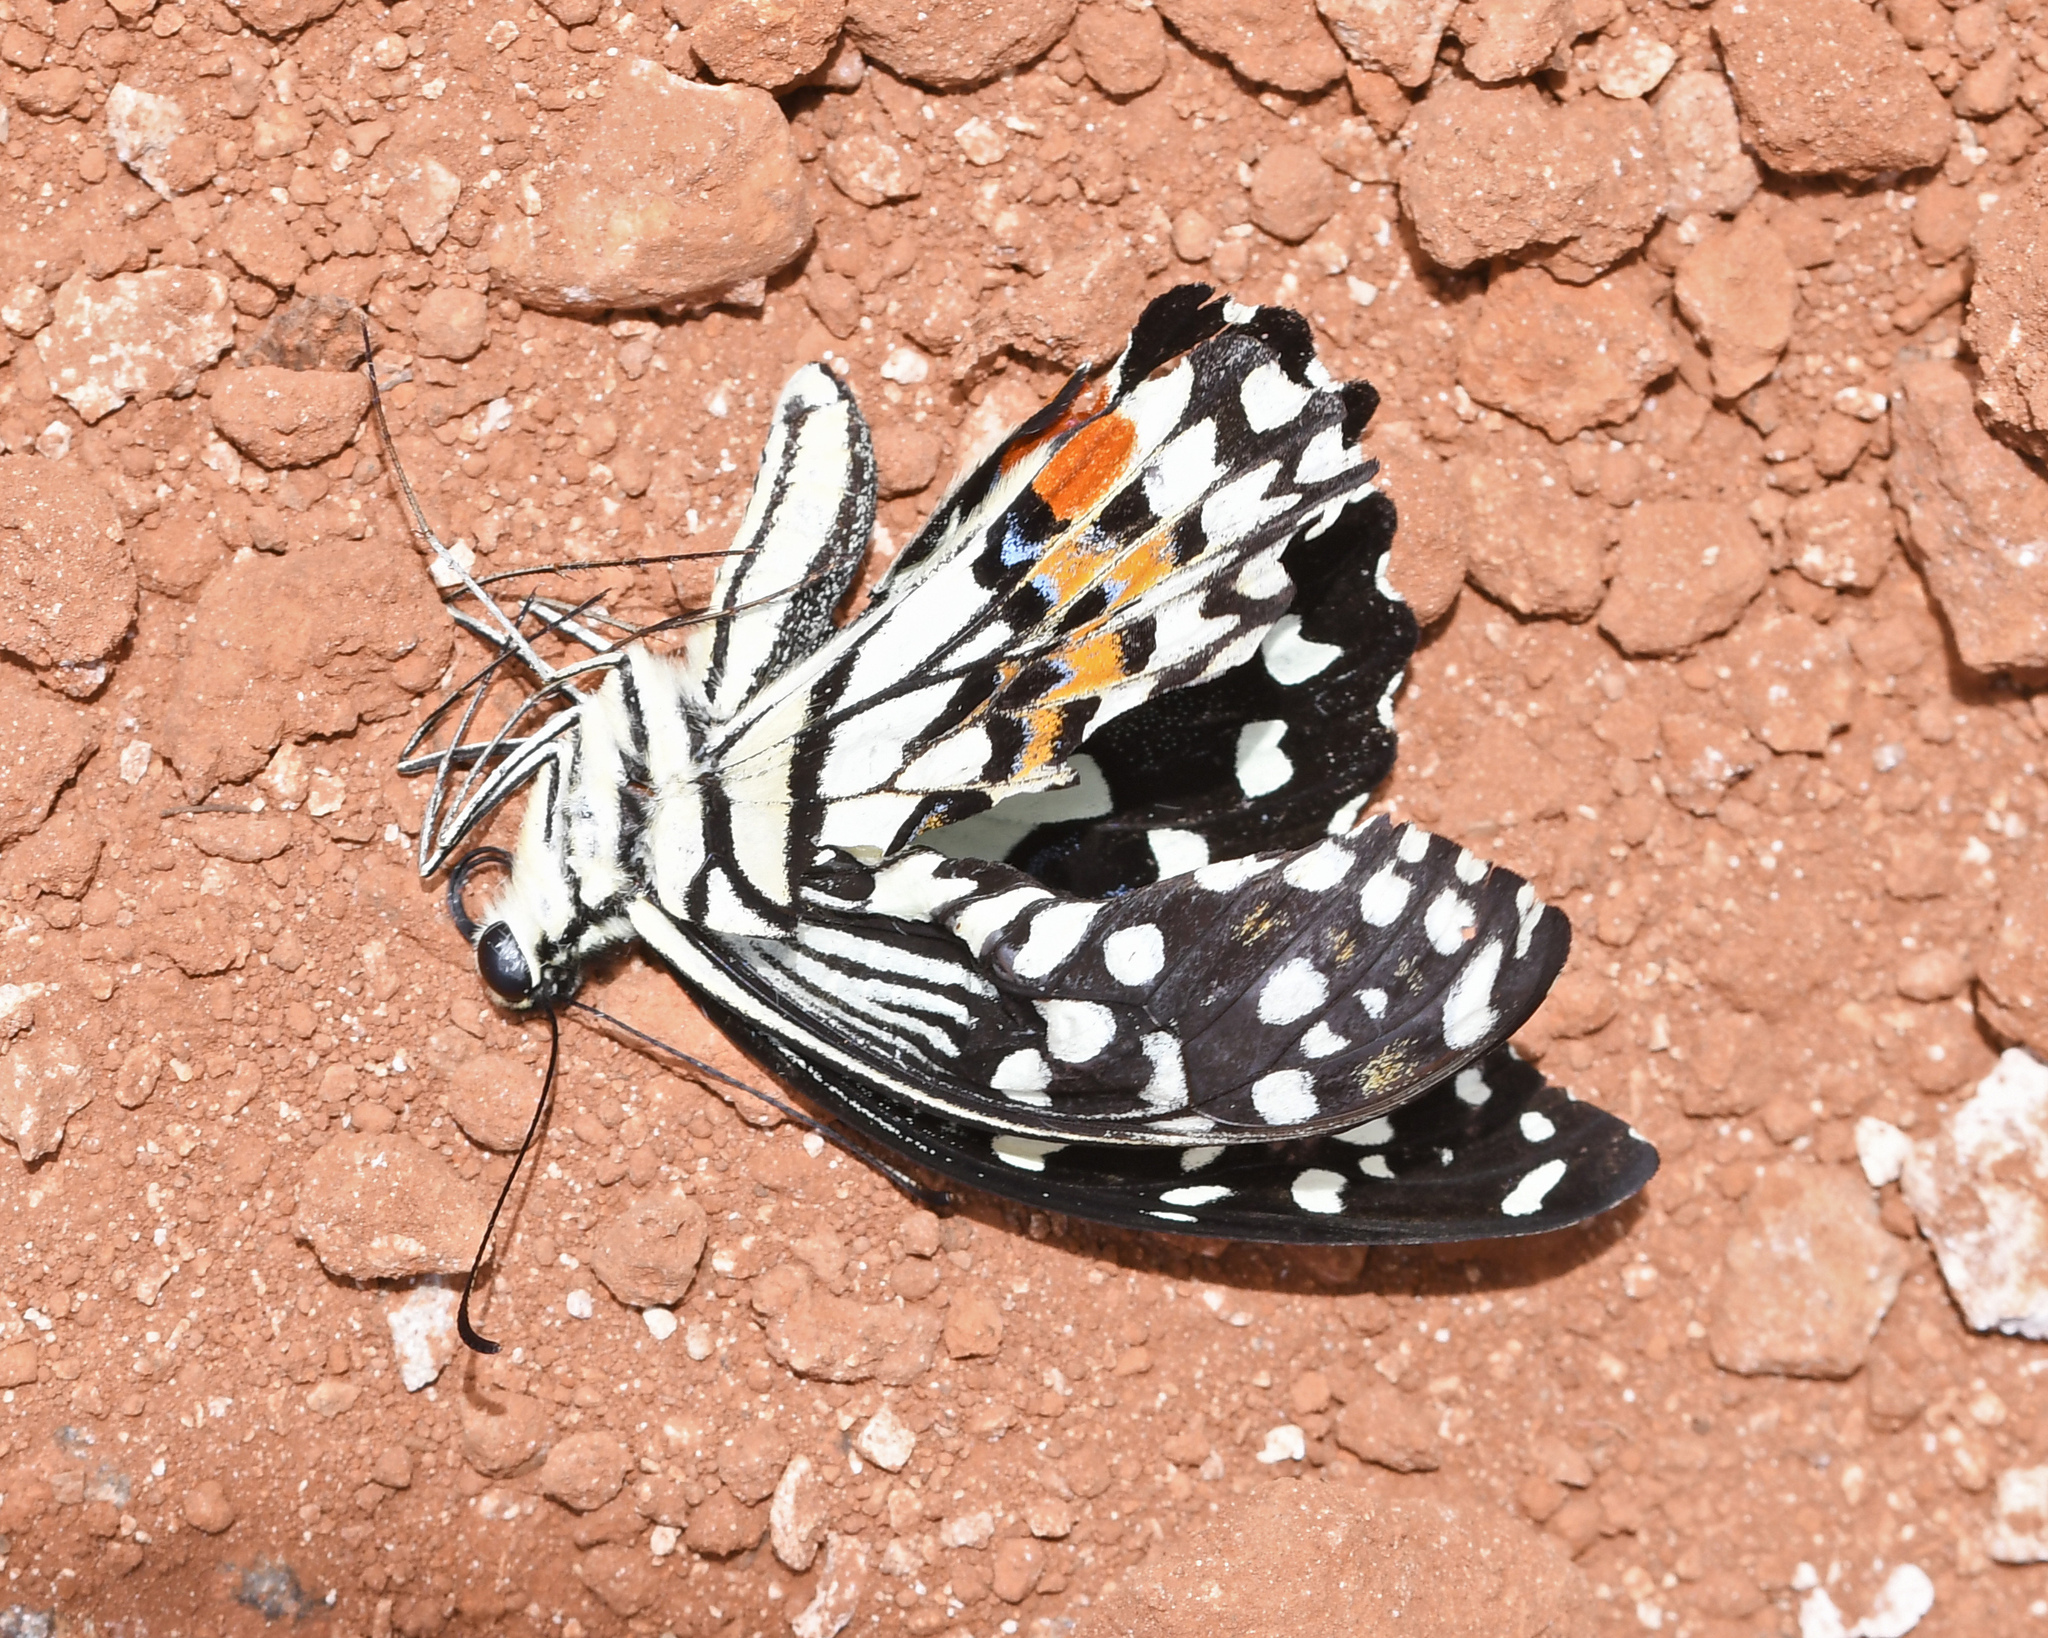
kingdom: Animalia
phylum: Arthropoda
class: Insecta
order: Lepidoptera
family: Papilionidae
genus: Papilio
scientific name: Papilio demoleus
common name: Lime butterfly
